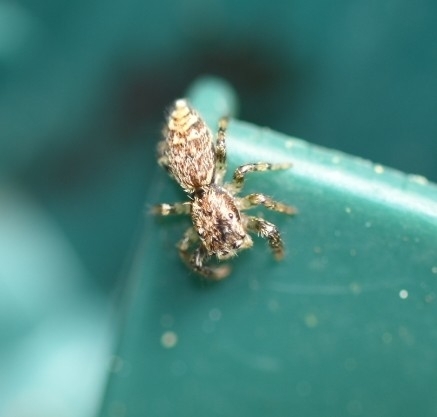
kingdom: Animalia
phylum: Arthropoda
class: Arachnida
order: Araneae
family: Salticidae
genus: Marpissa
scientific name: Marpissa muscosa
